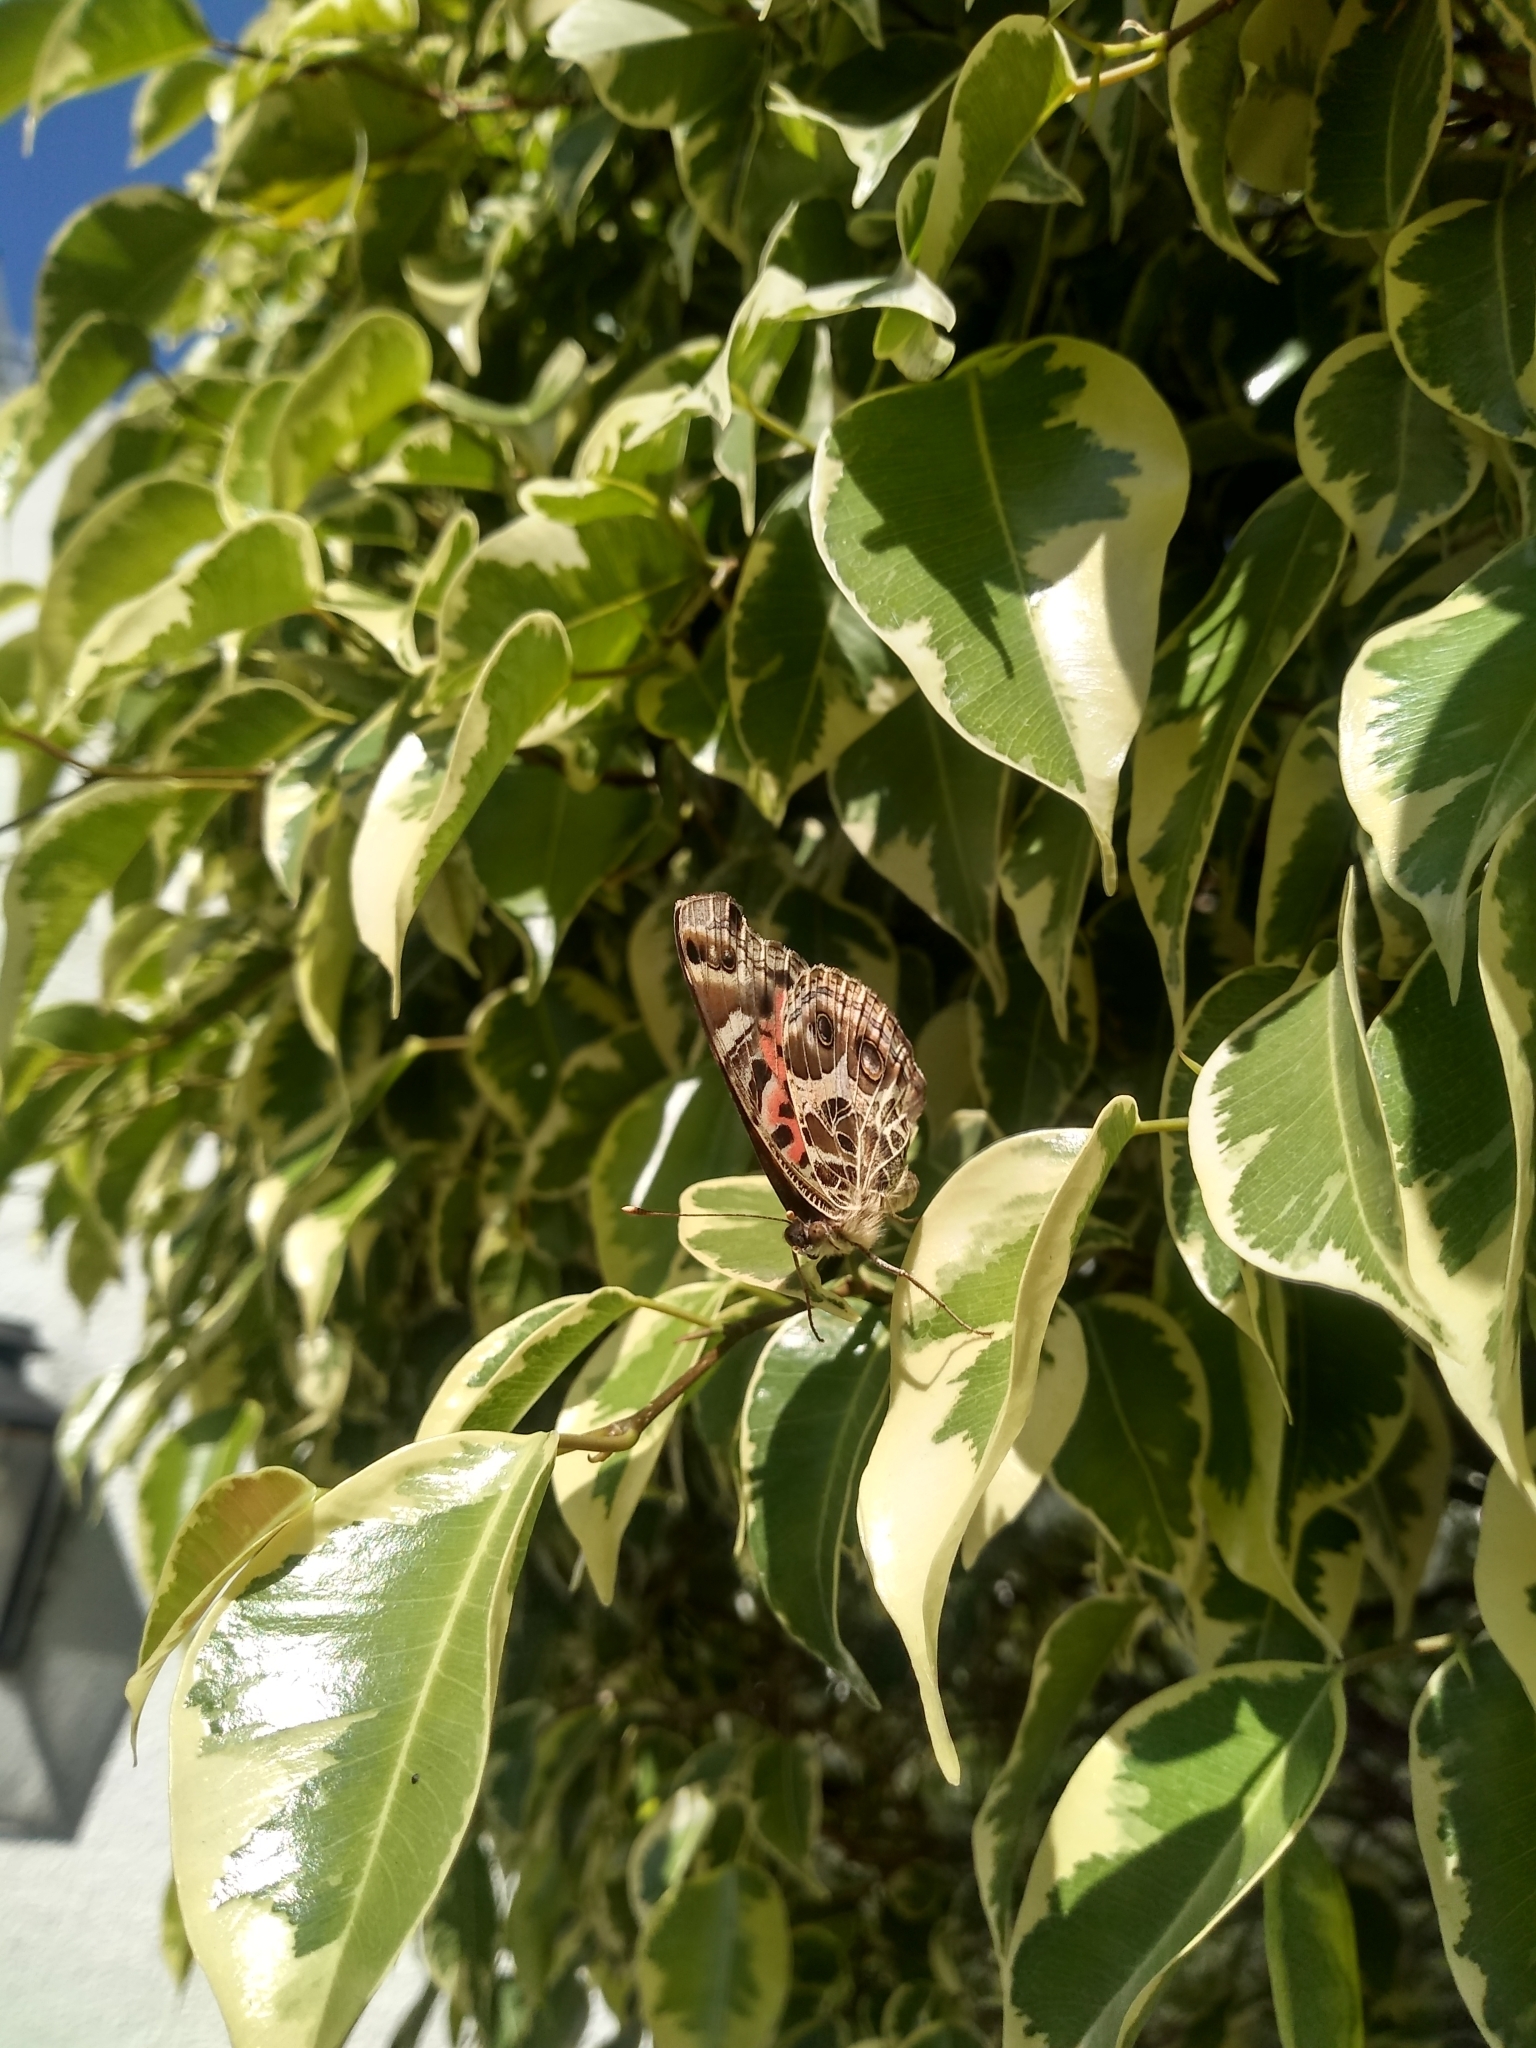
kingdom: Animalia
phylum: Arthropoda
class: Insecta
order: Lepidoptera
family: Nymphalidae
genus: Vanessa
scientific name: Vanessa braziliensis
